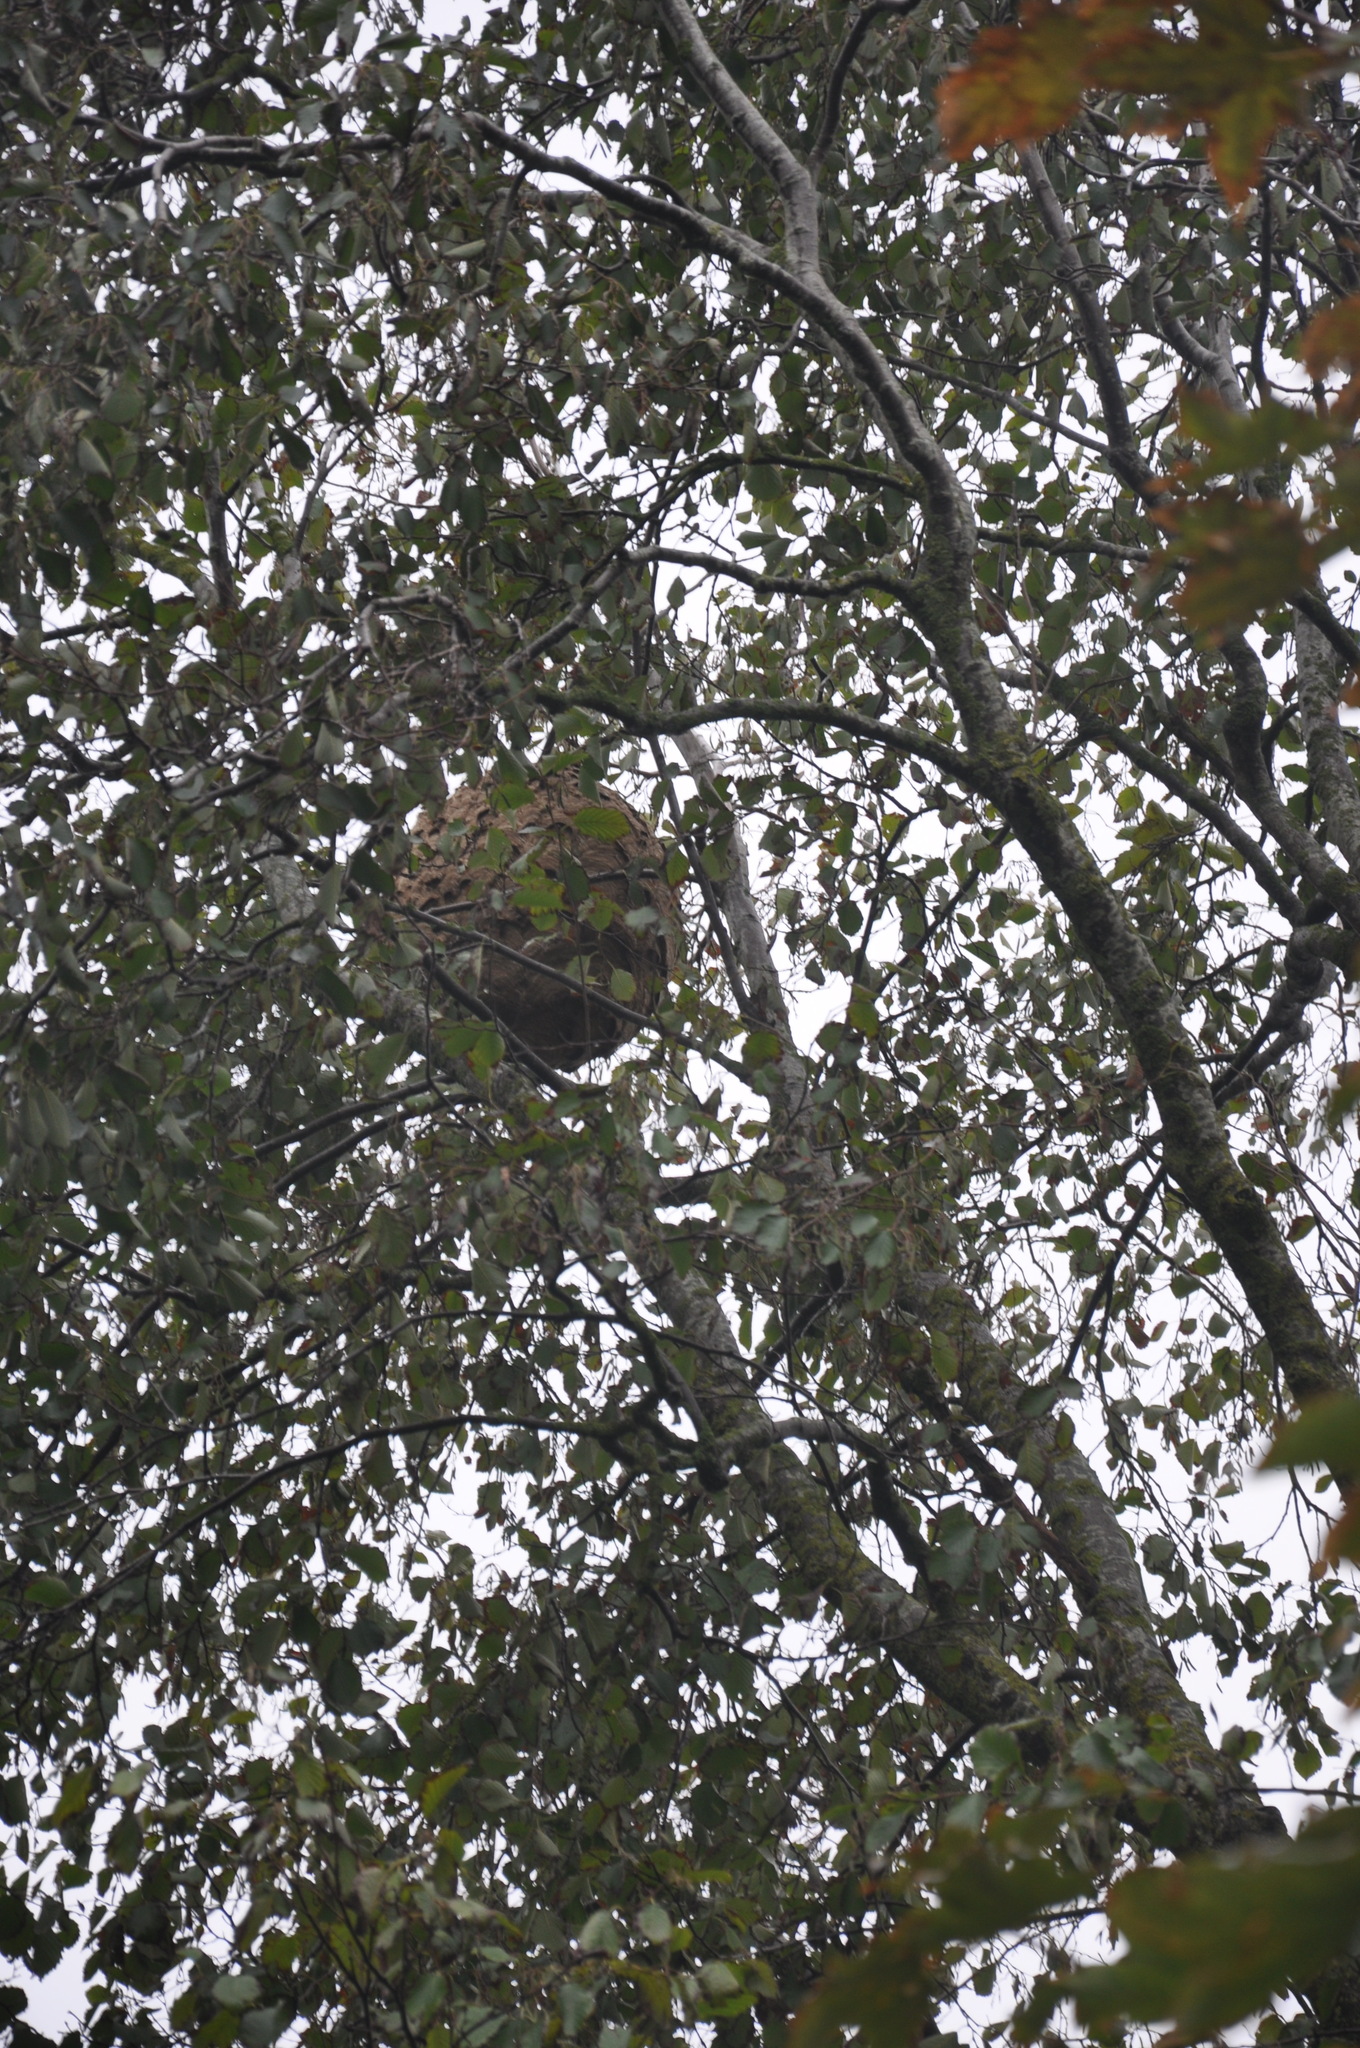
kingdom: Animalia
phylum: Arthropoda
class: Insecta
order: Hymenoptera
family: Vespidae
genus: Vespa
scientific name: Vespa velutina
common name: Asian hornet
